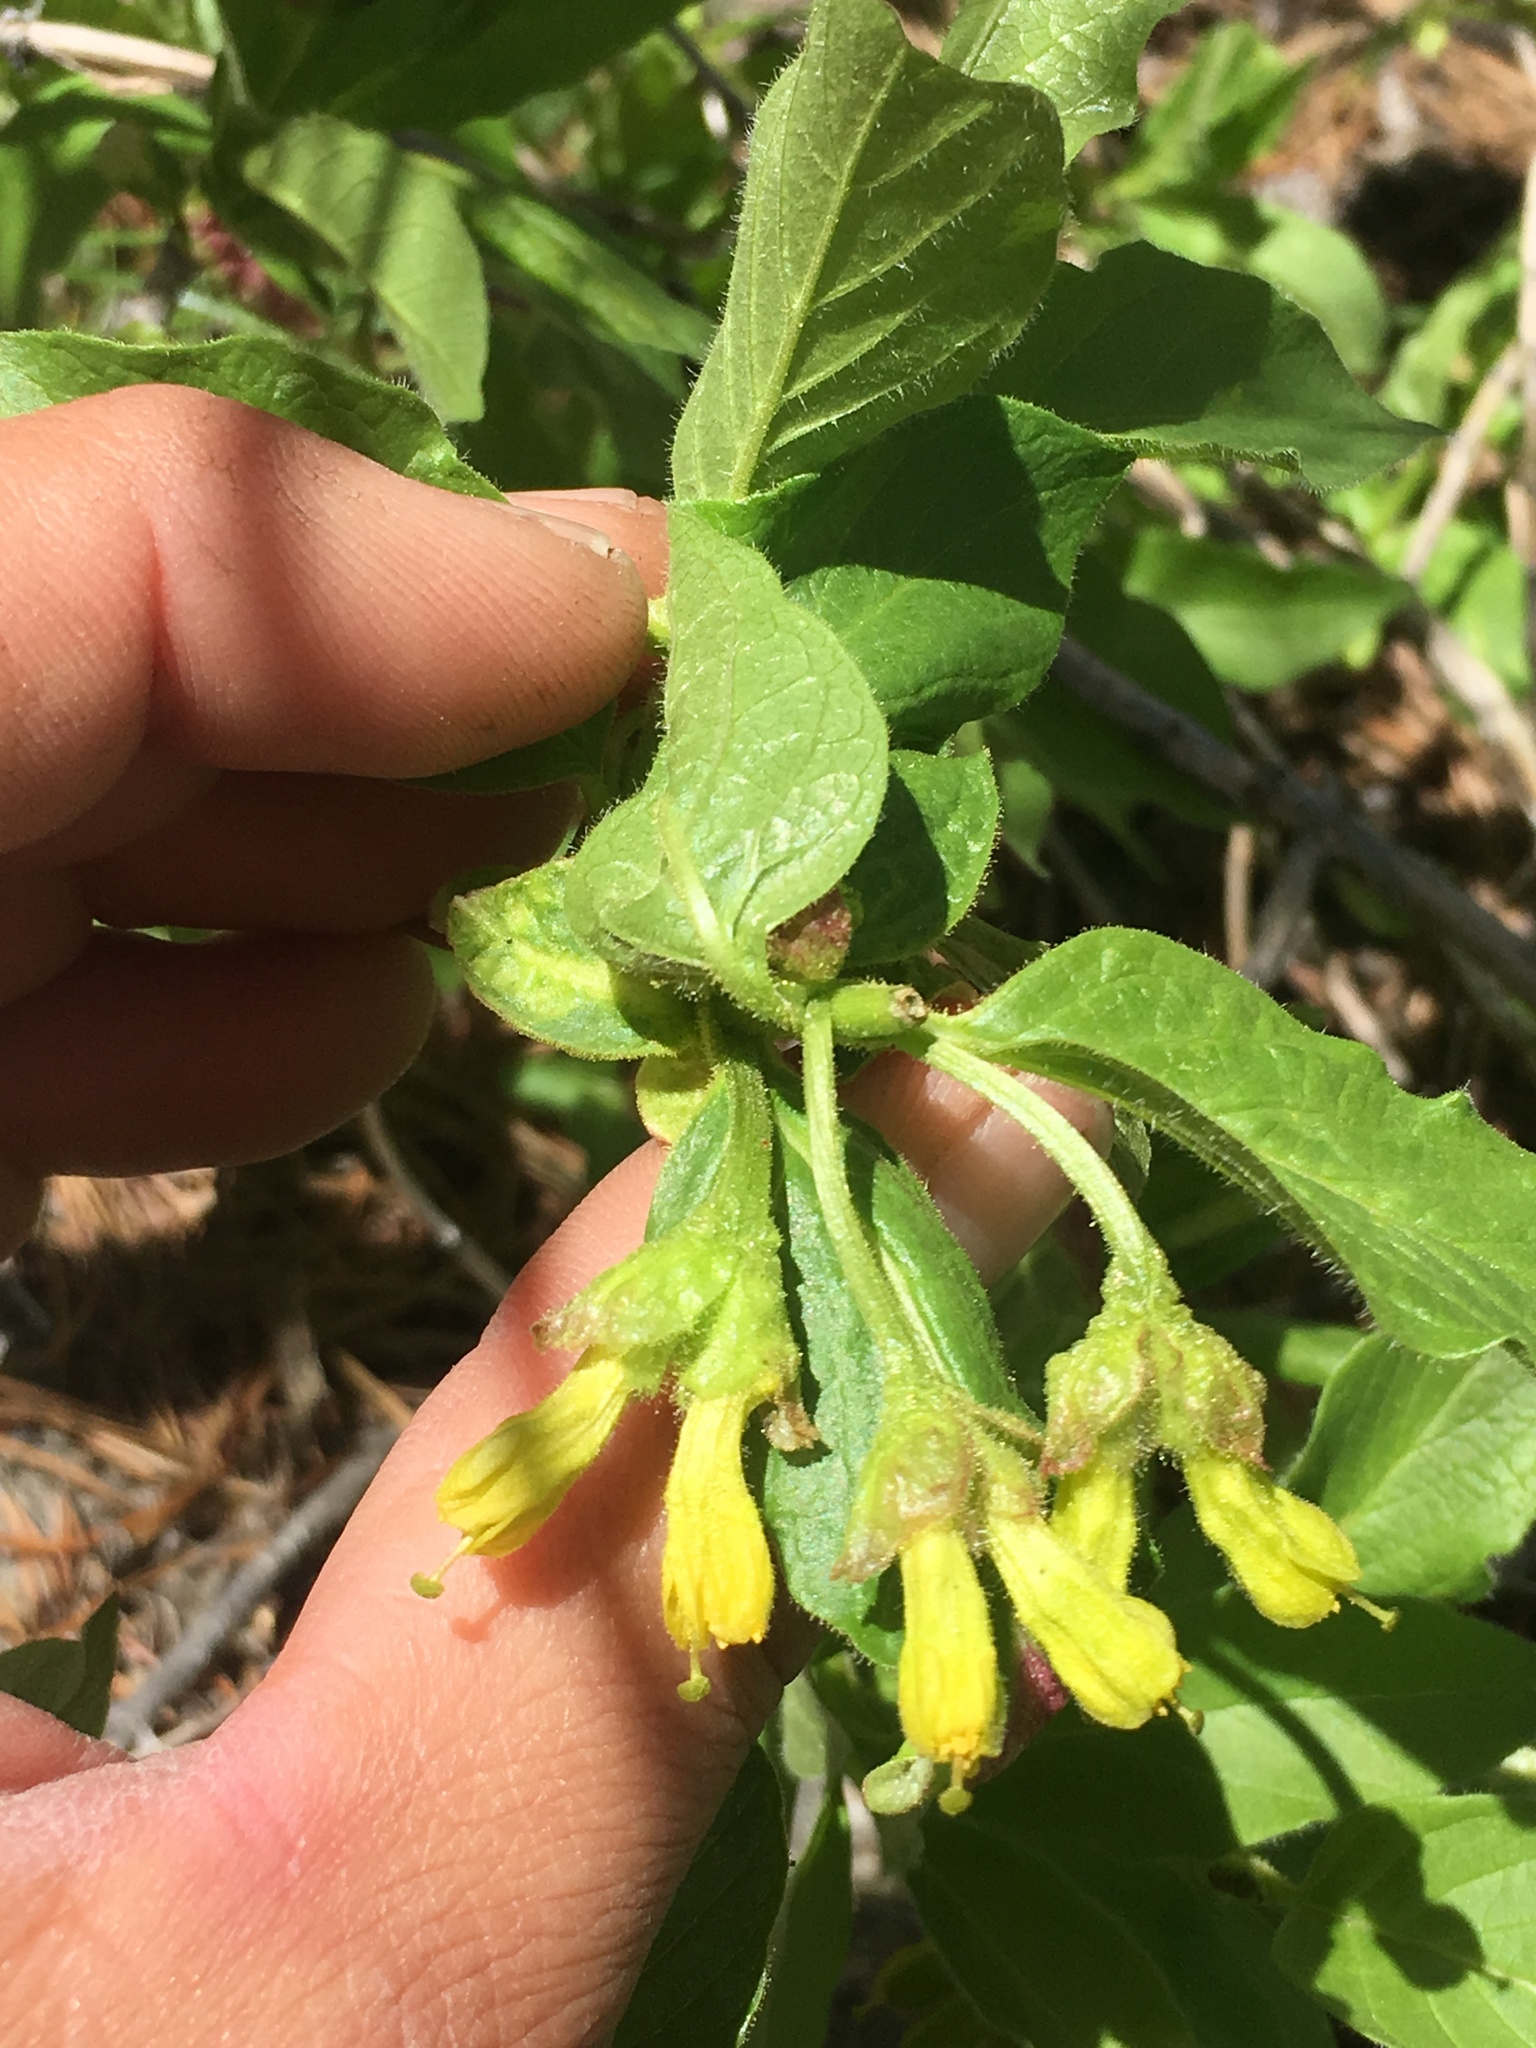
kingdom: Plantae
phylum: Tracheophyta
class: Magnoliopsida
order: Dipsacales
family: Caprifoliaceae
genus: Lonicera
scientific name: Lonicera involucrata
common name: Californian honeysuckle
